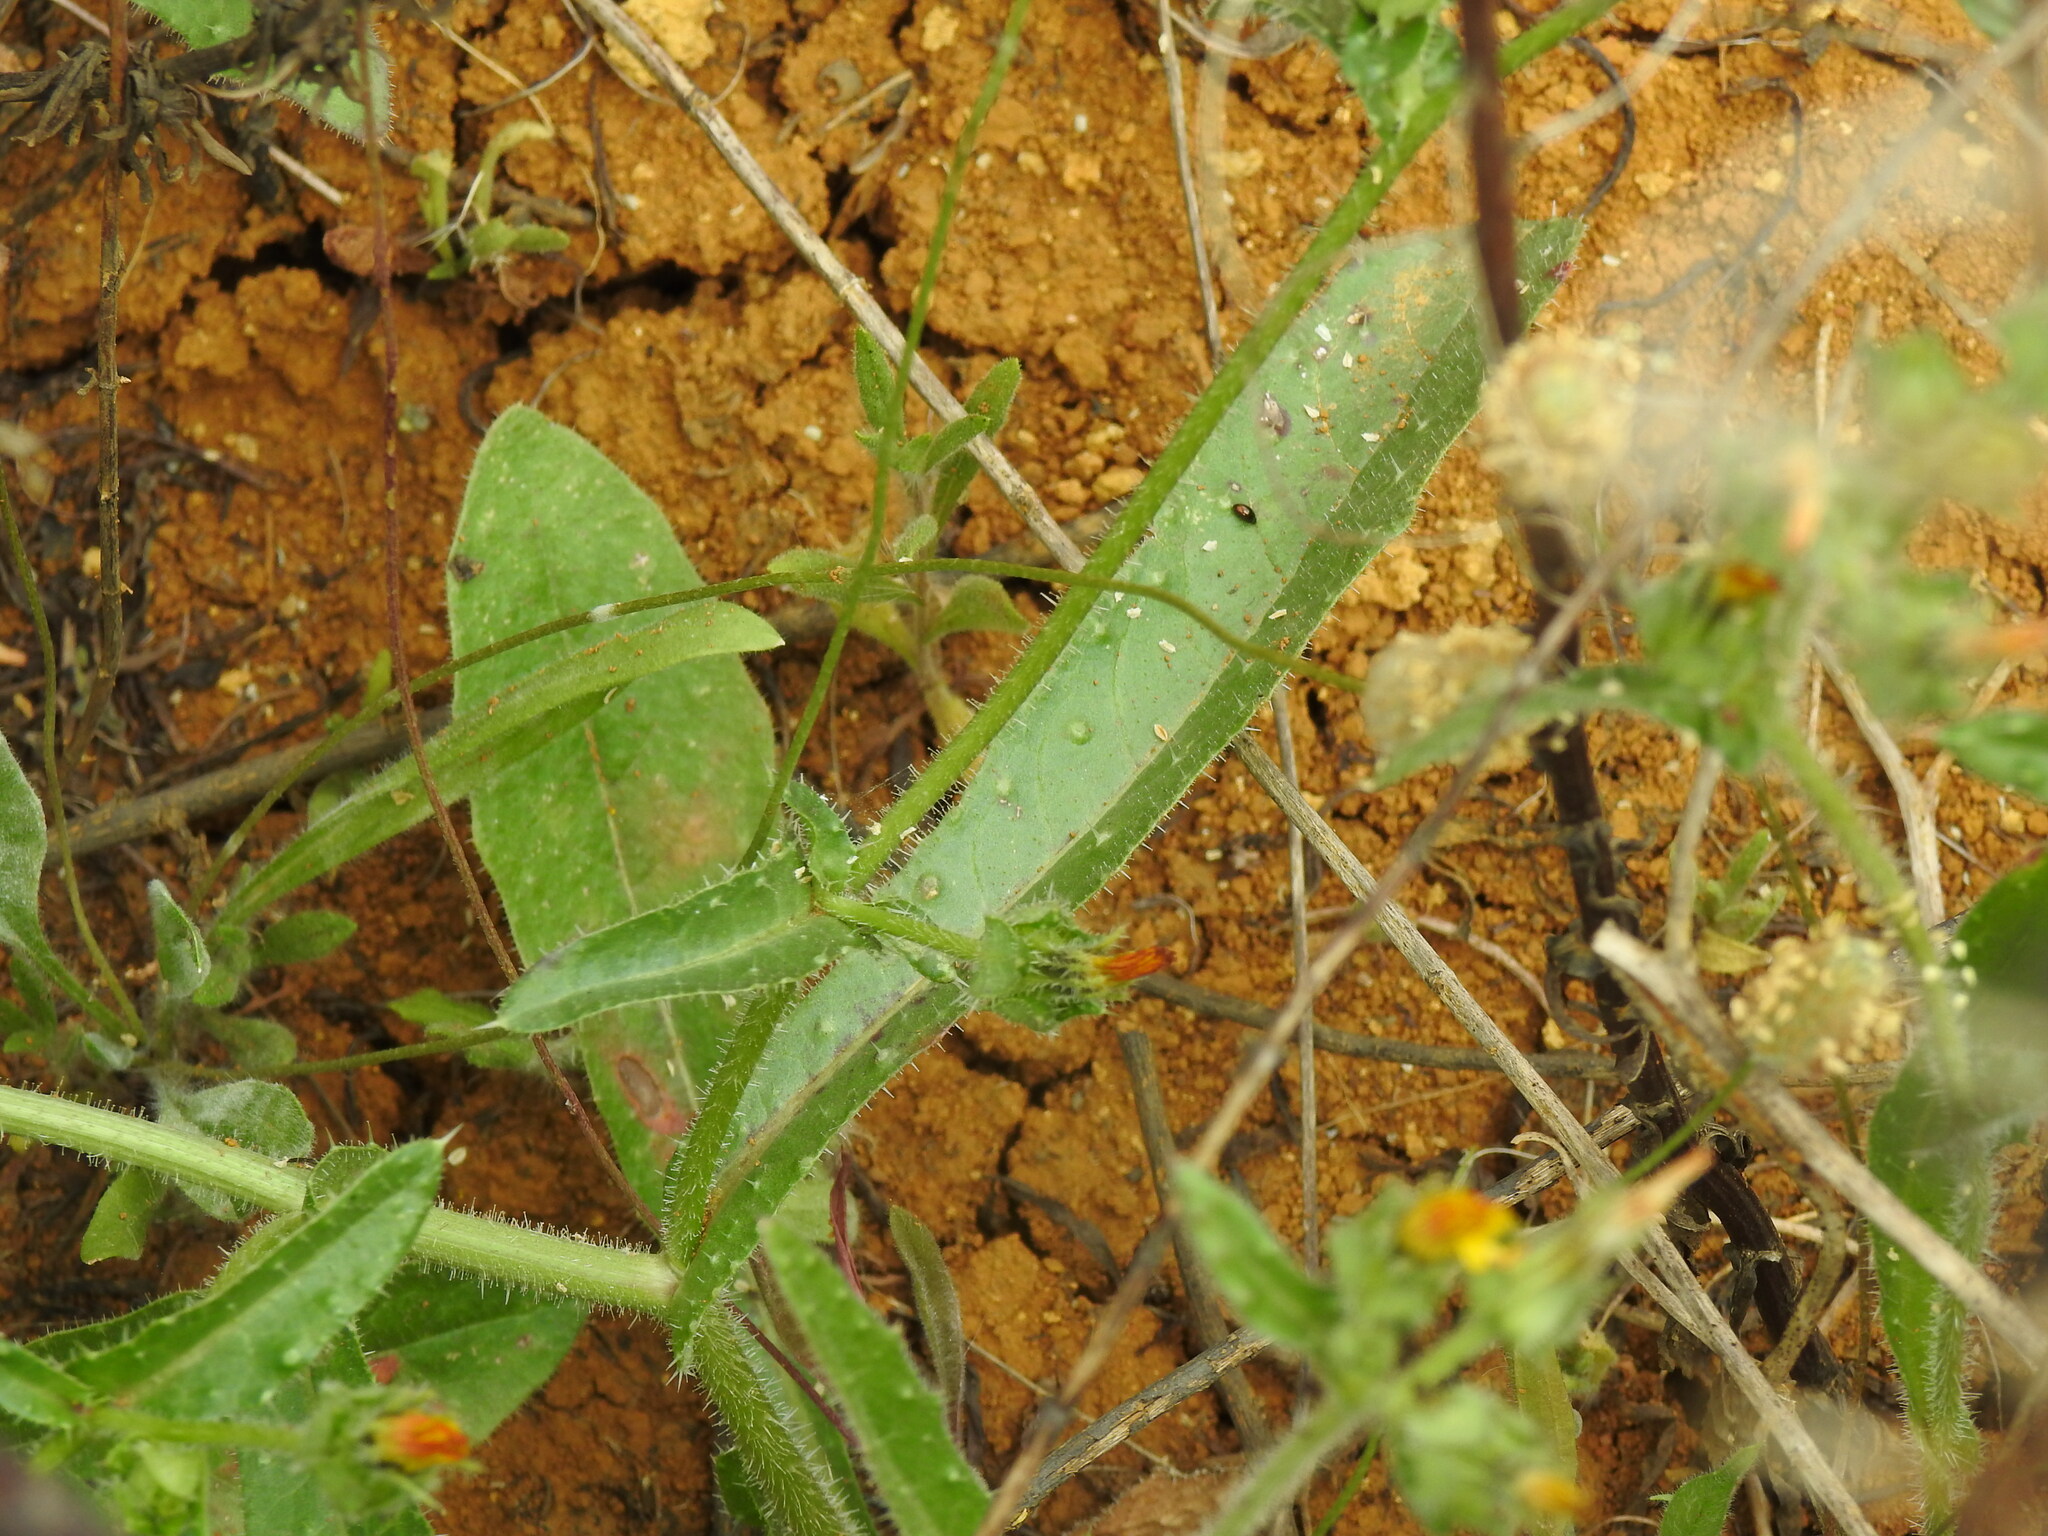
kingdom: Plantae
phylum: Tracheophyta
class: Magnoliopsida
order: Asterales
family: Asteraceae
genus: Helminthotheca
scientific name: Helminthotheca echioides
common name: Ox-tongue
